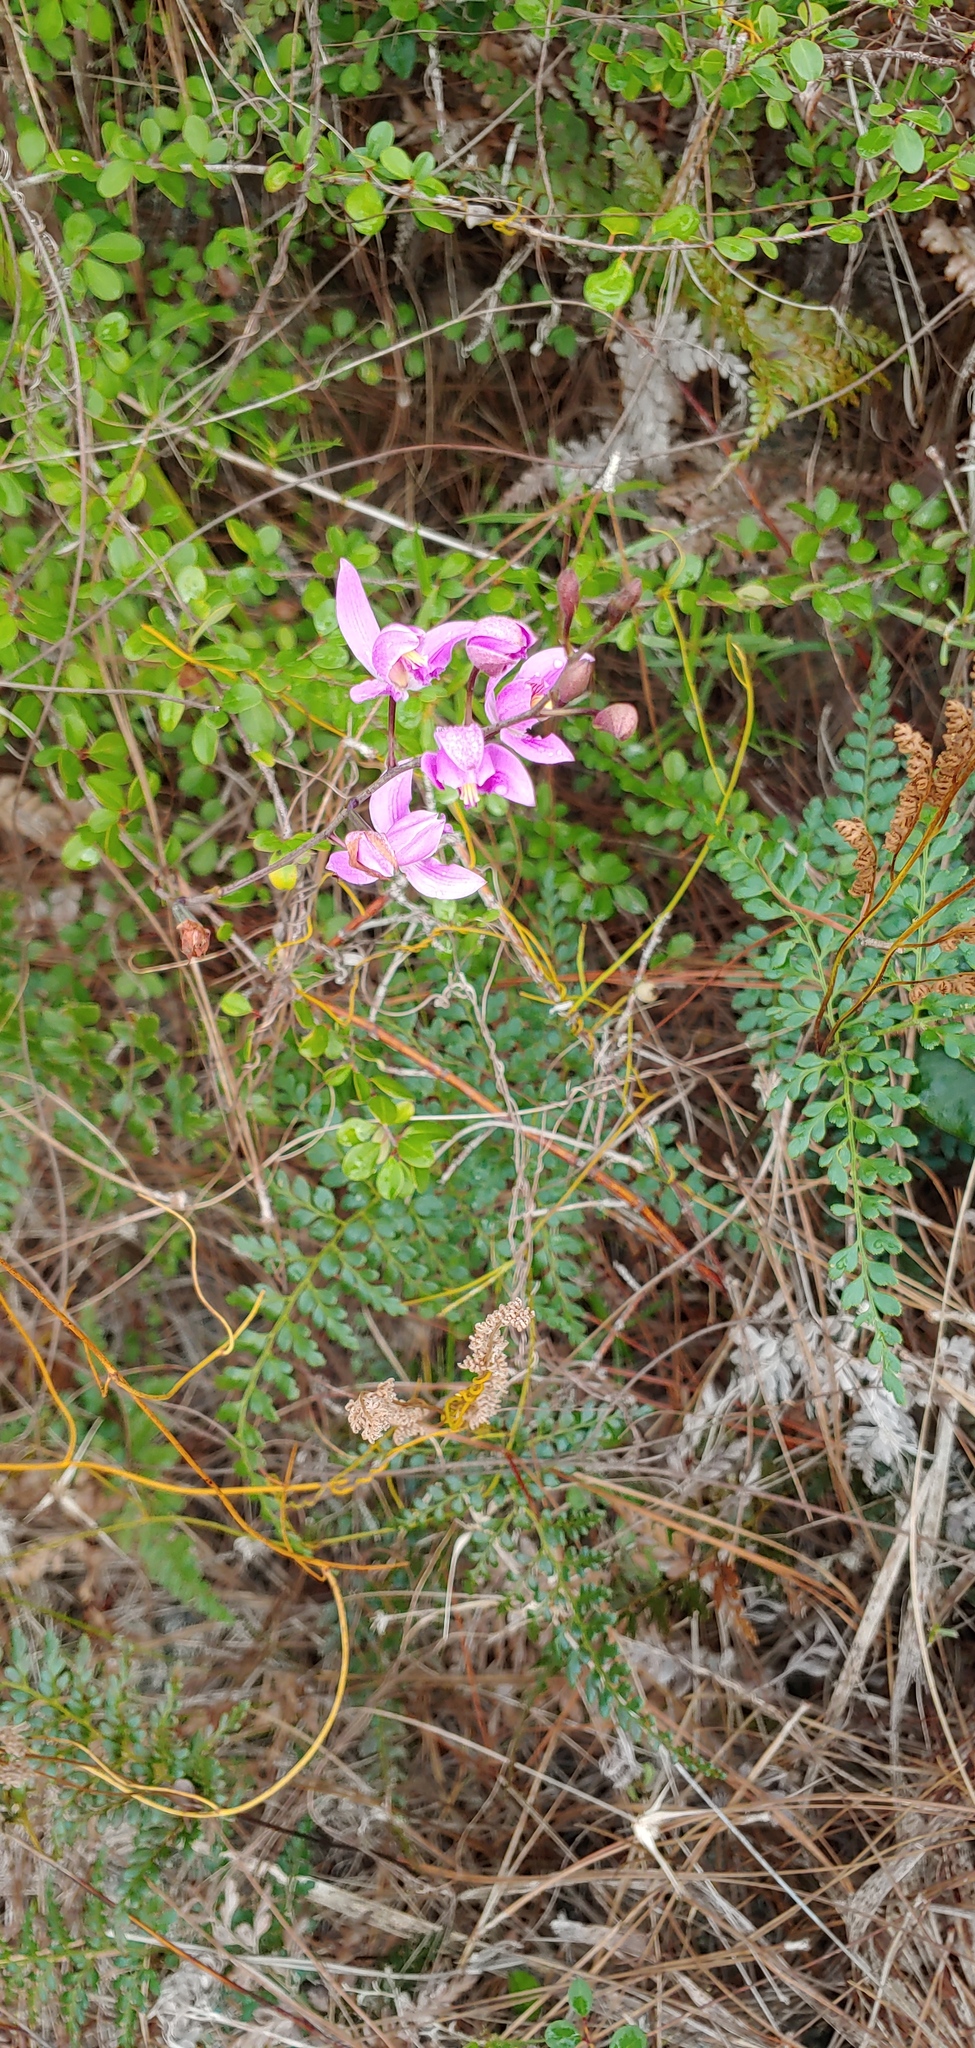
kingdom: Plantae
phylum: Tracheophyta
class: Liliopsida
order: Asparagales
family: Orchidaceae
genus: Bletia
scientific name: Bletia purpurea
